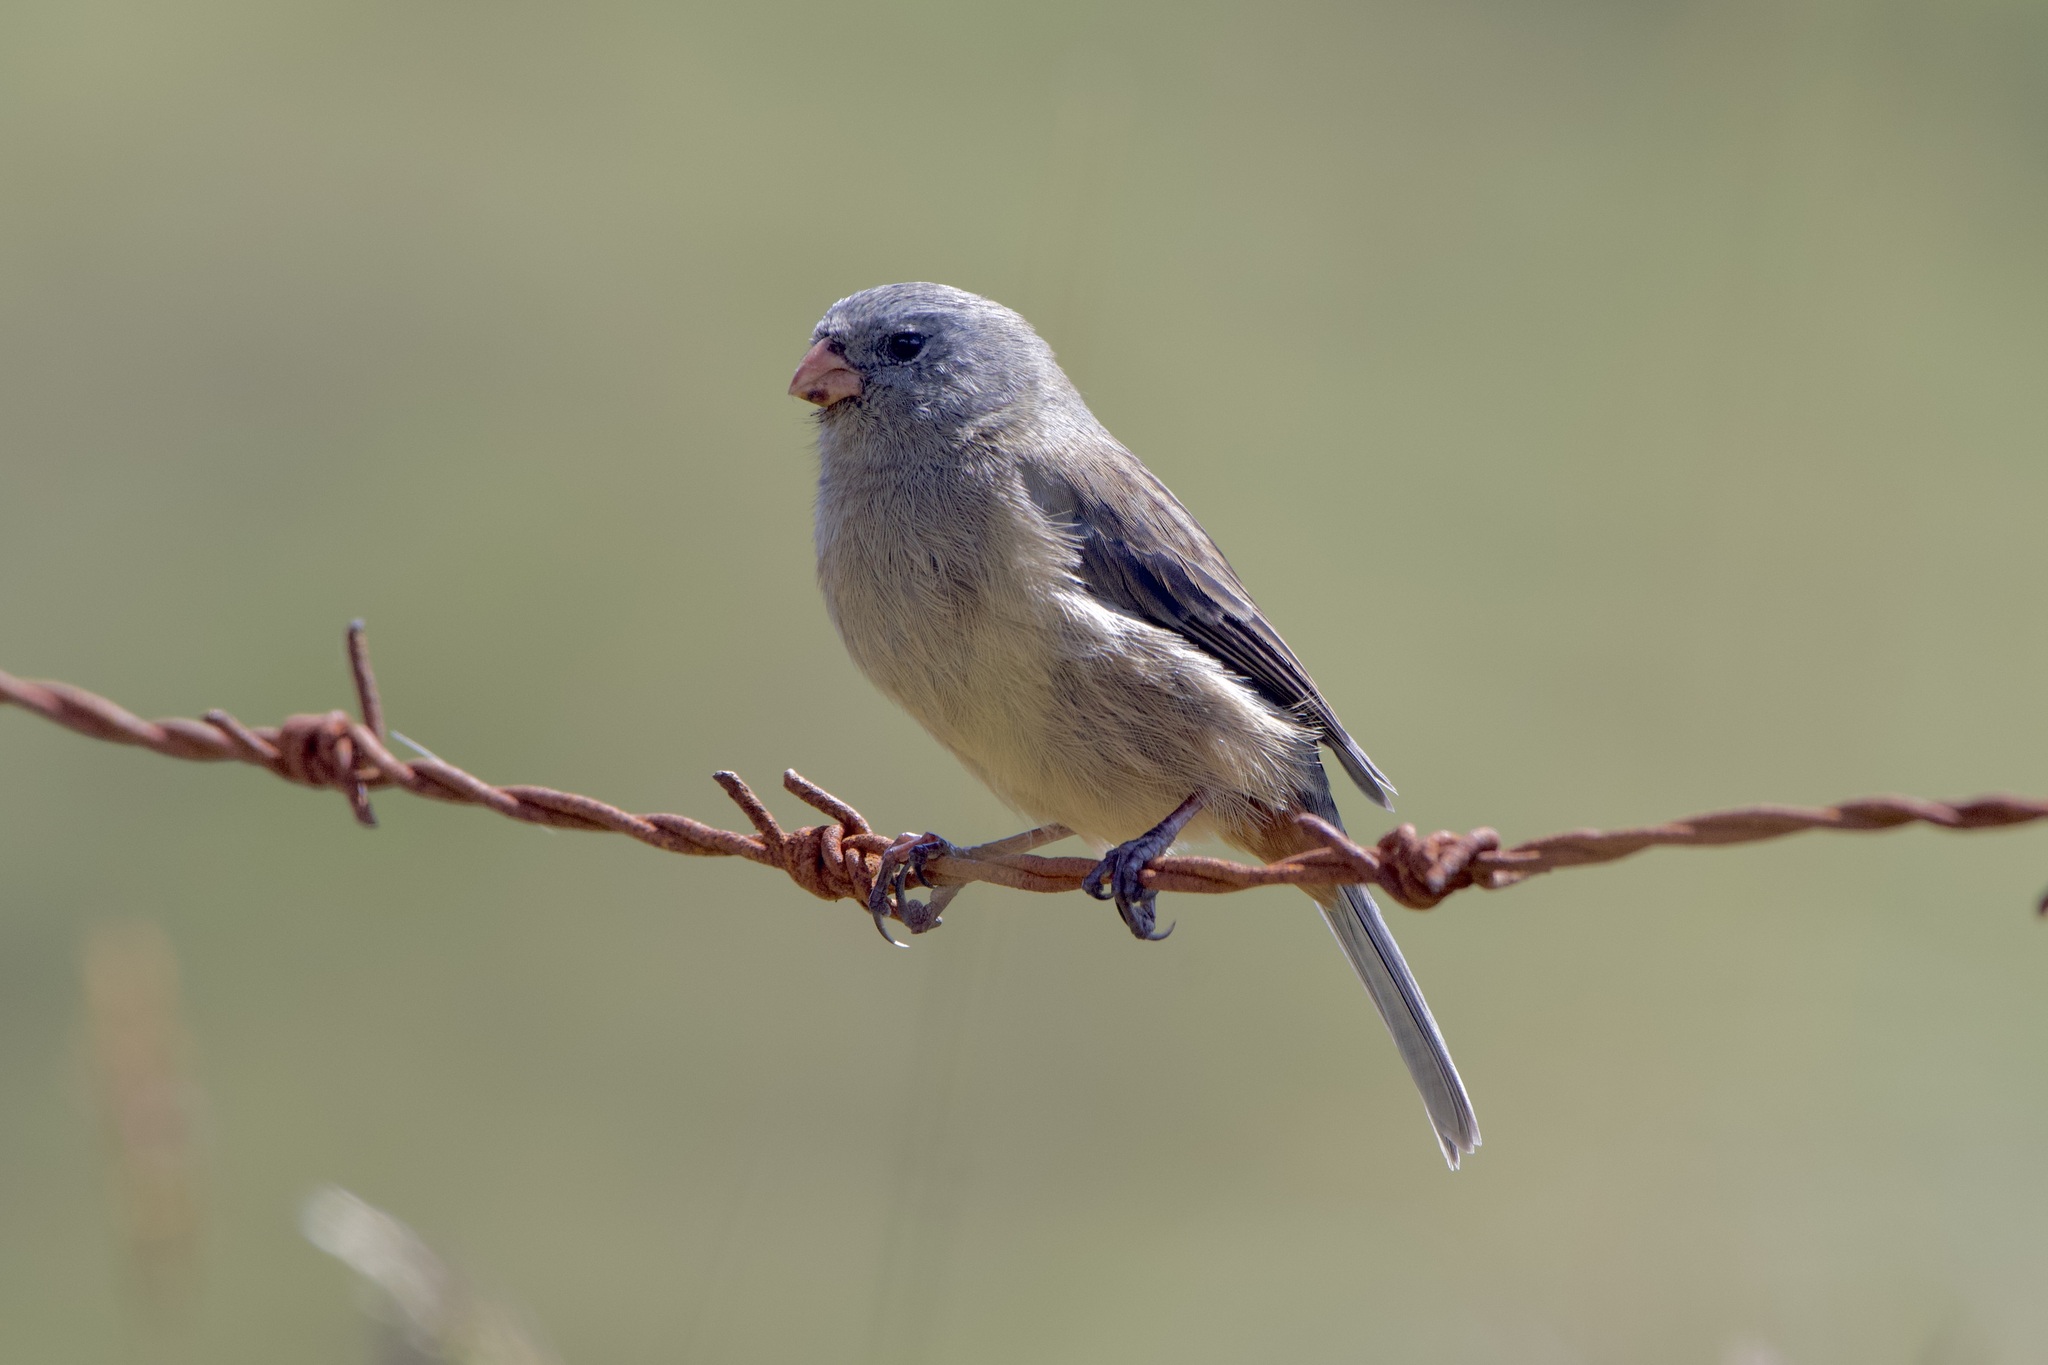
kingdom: Animalia
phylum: Chordata
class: Aves
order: Passeriformes
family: Thraupidae
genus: Catamenia
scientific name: Catamenia inornata
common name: Plain-colored seedeater
